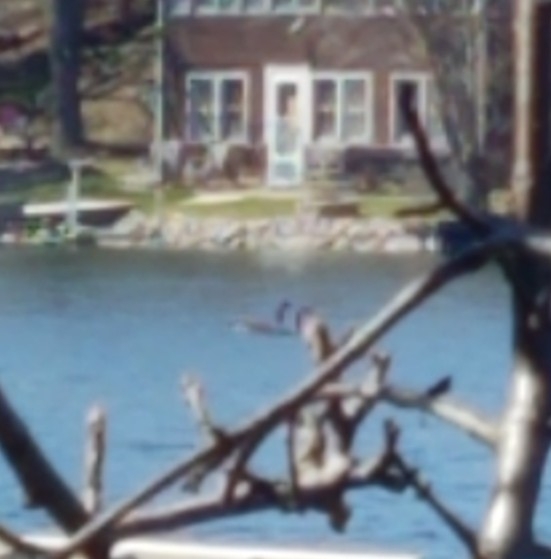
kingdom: Animalia
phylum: Chordata
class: Aves
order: Anseriformes
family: Anatidae
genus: Branta
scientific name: Branta canadensis
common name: Canada goose
